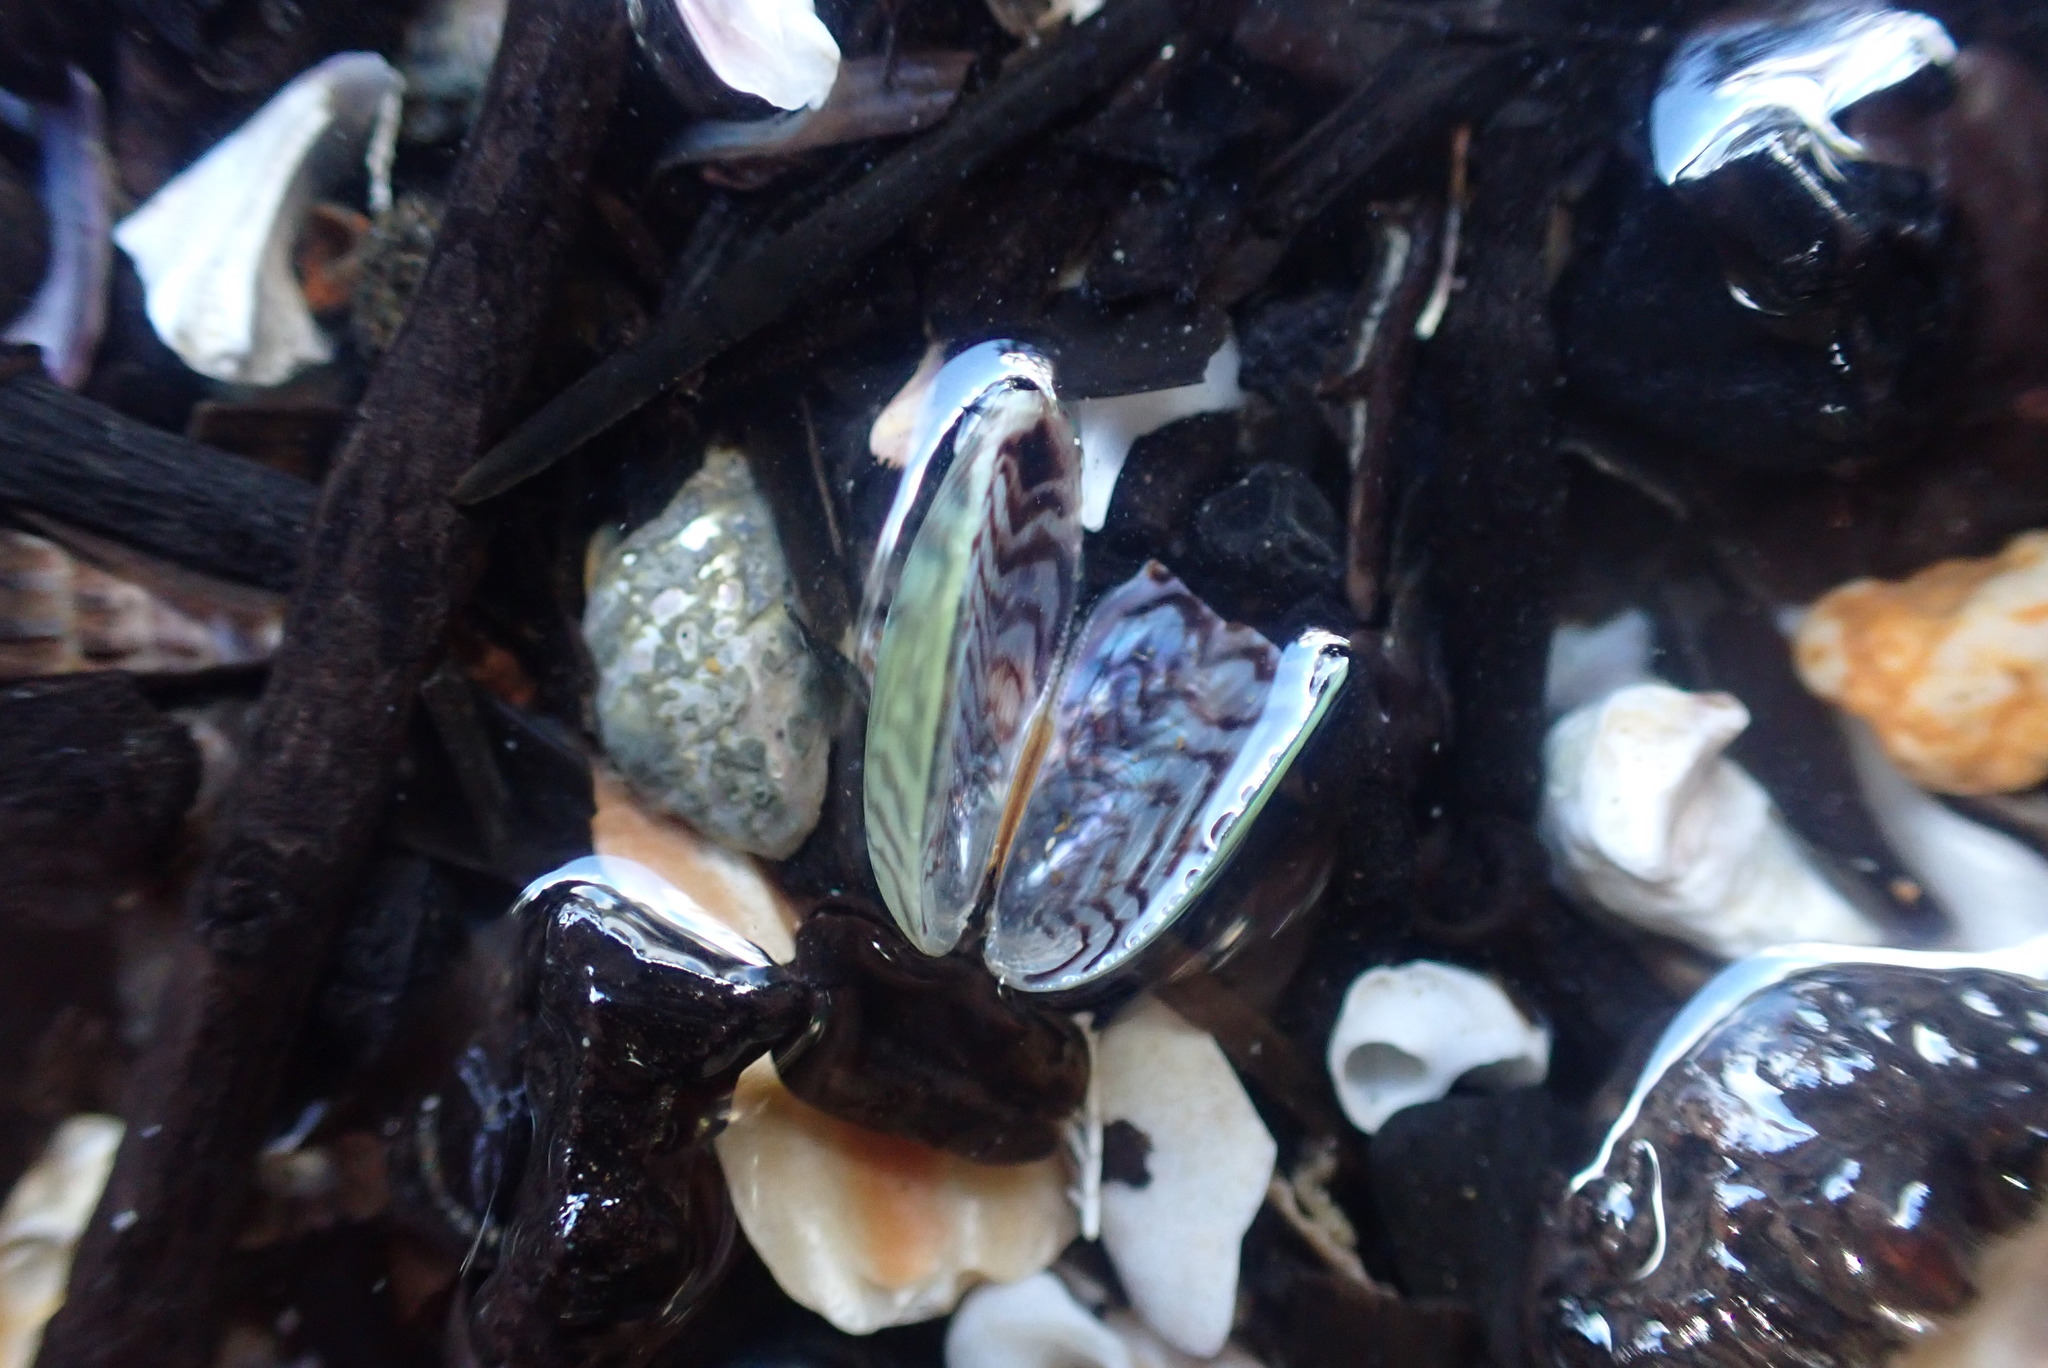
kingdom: Animalia
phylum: Mollusca
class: Bivalvia
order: Mytilida
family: Mytilidae
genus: Arcuatula
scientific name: Arcuatula senhousia
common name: Asian mussel
